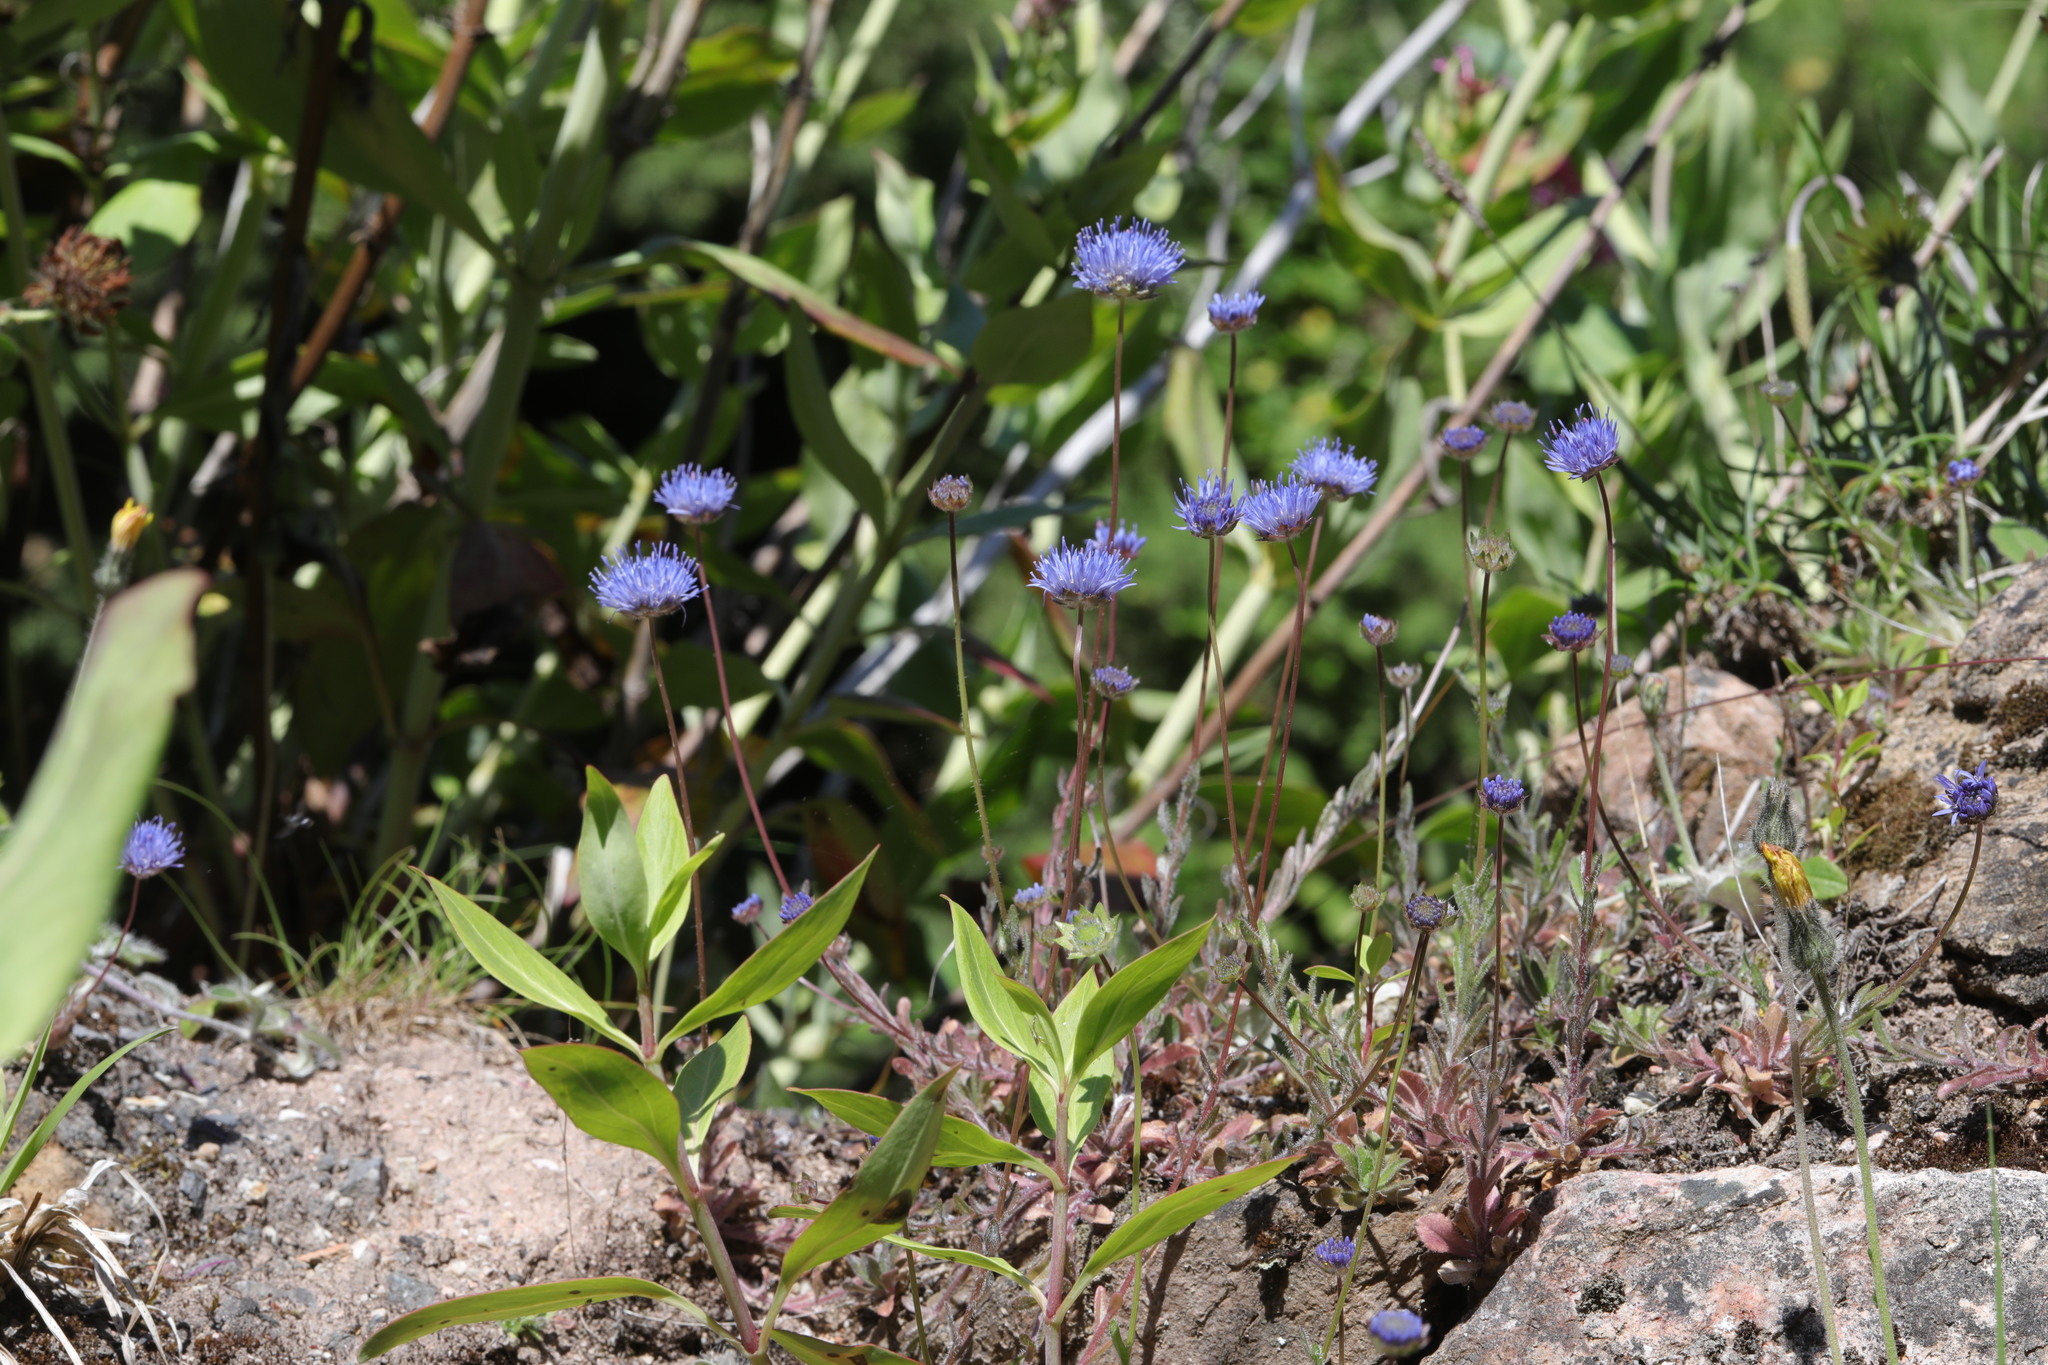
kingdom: Plantae
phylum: Tracheophyta
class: Magnoliopsida
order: Asterales
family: Campanulaceae
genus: Jasione
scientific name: Jasione montana
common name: Sheep's-bit
